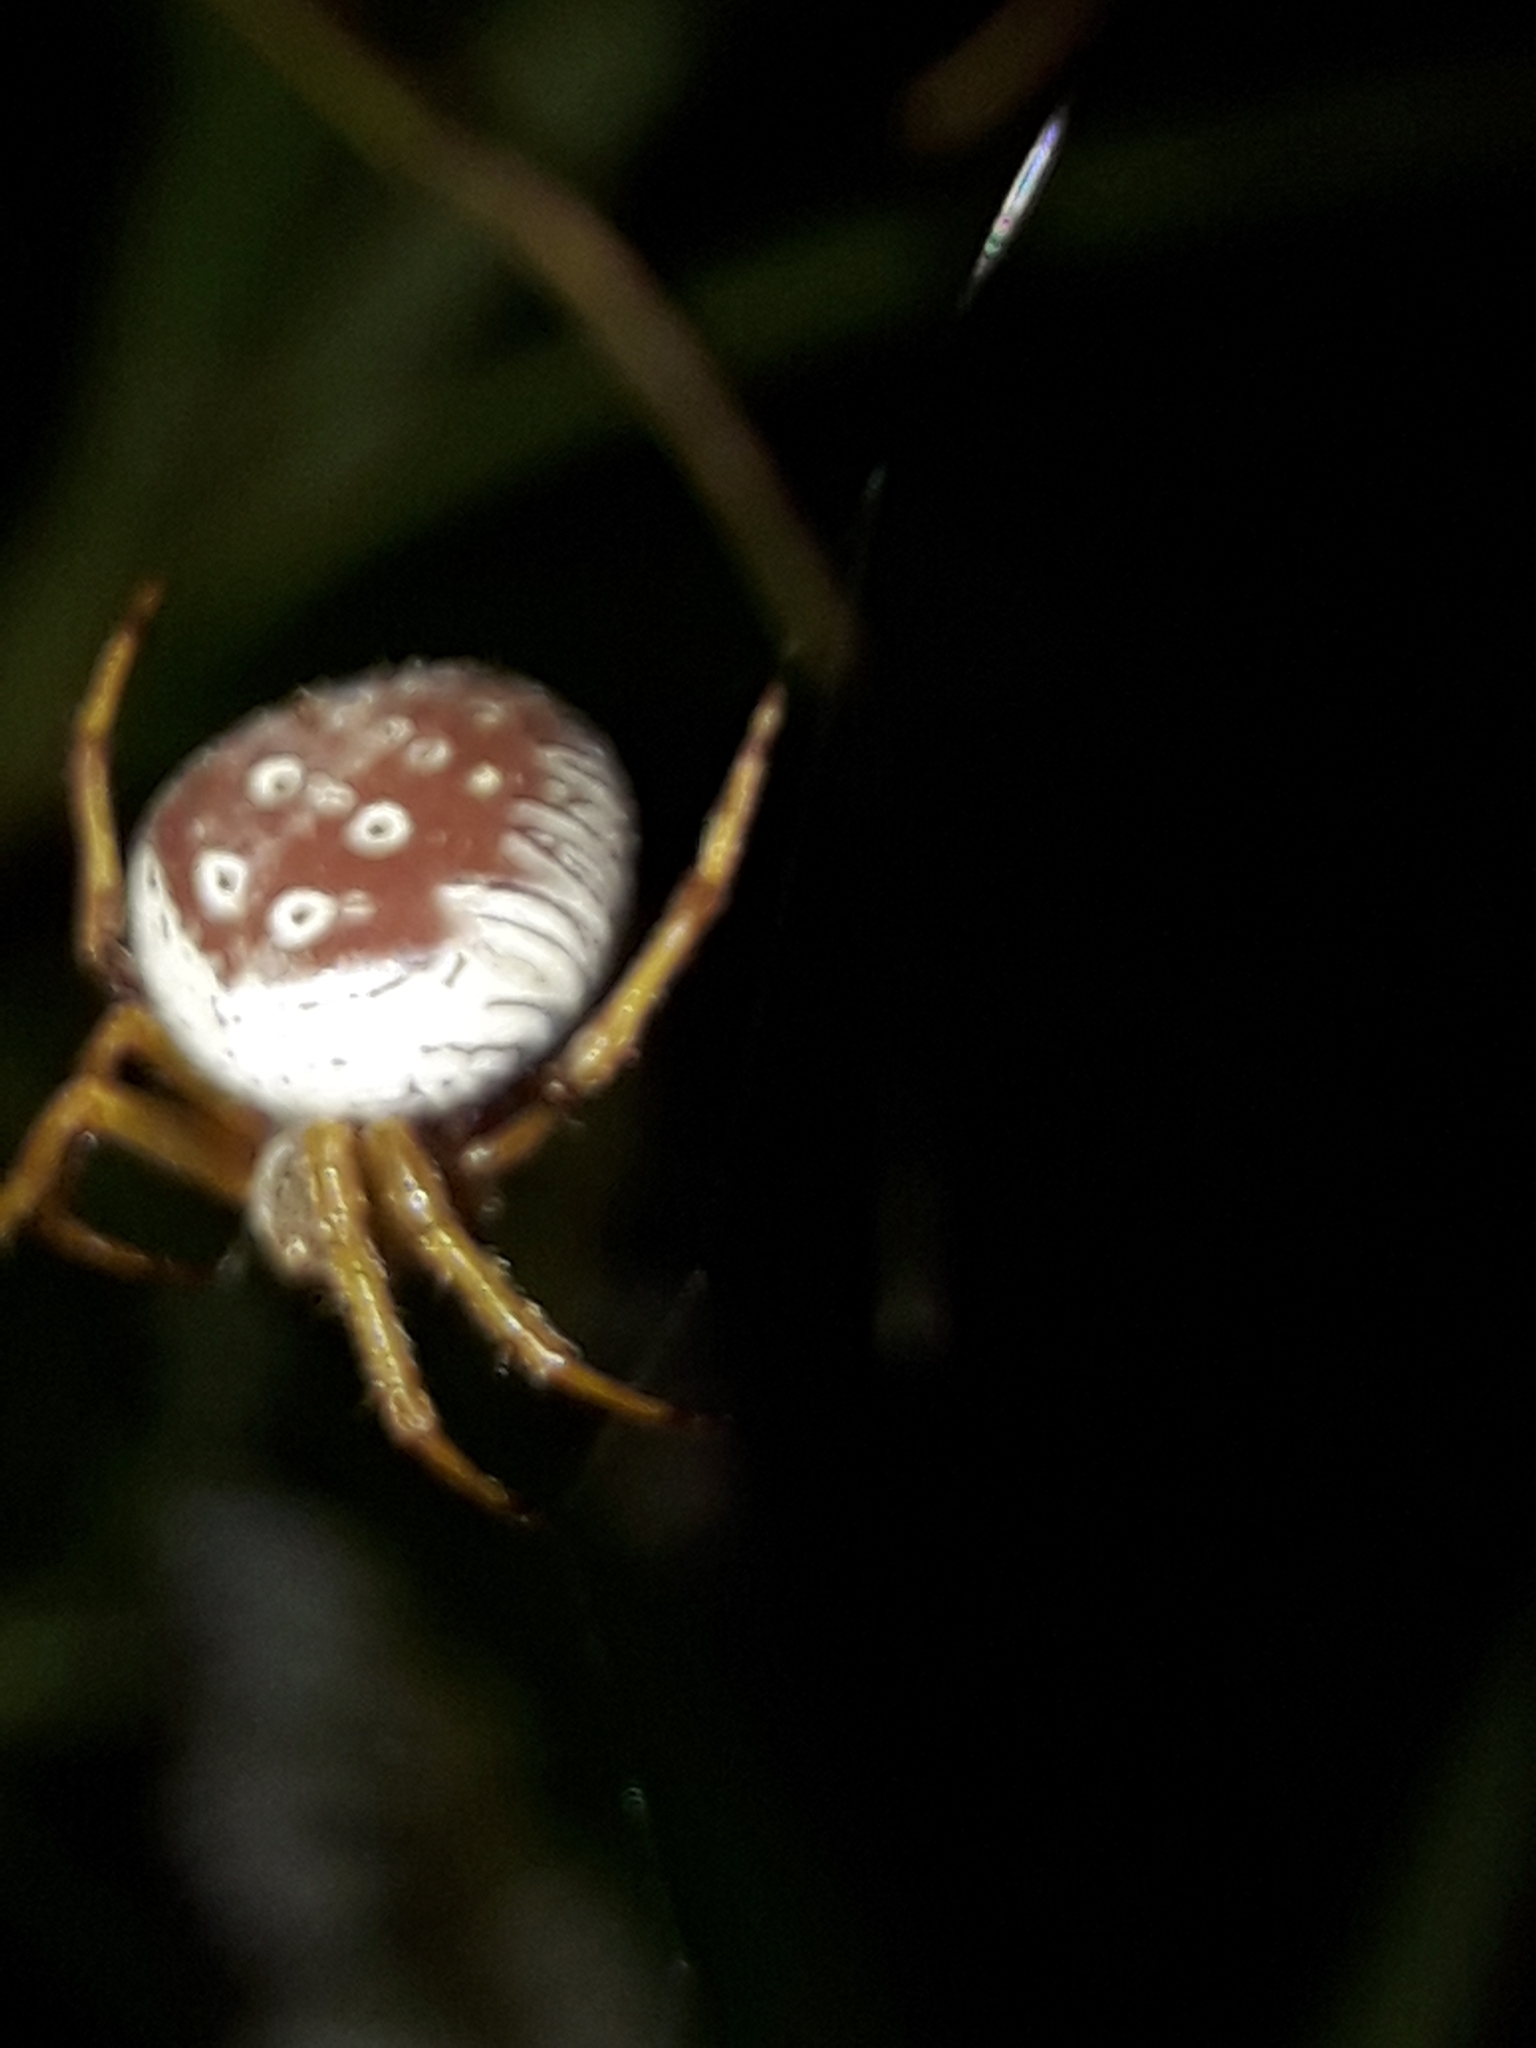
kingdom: Animalia
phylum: Arthropoda
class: Arachnida
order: Araneae
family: Araneidae
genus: Zealaranea
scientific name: Zealaranea prina
